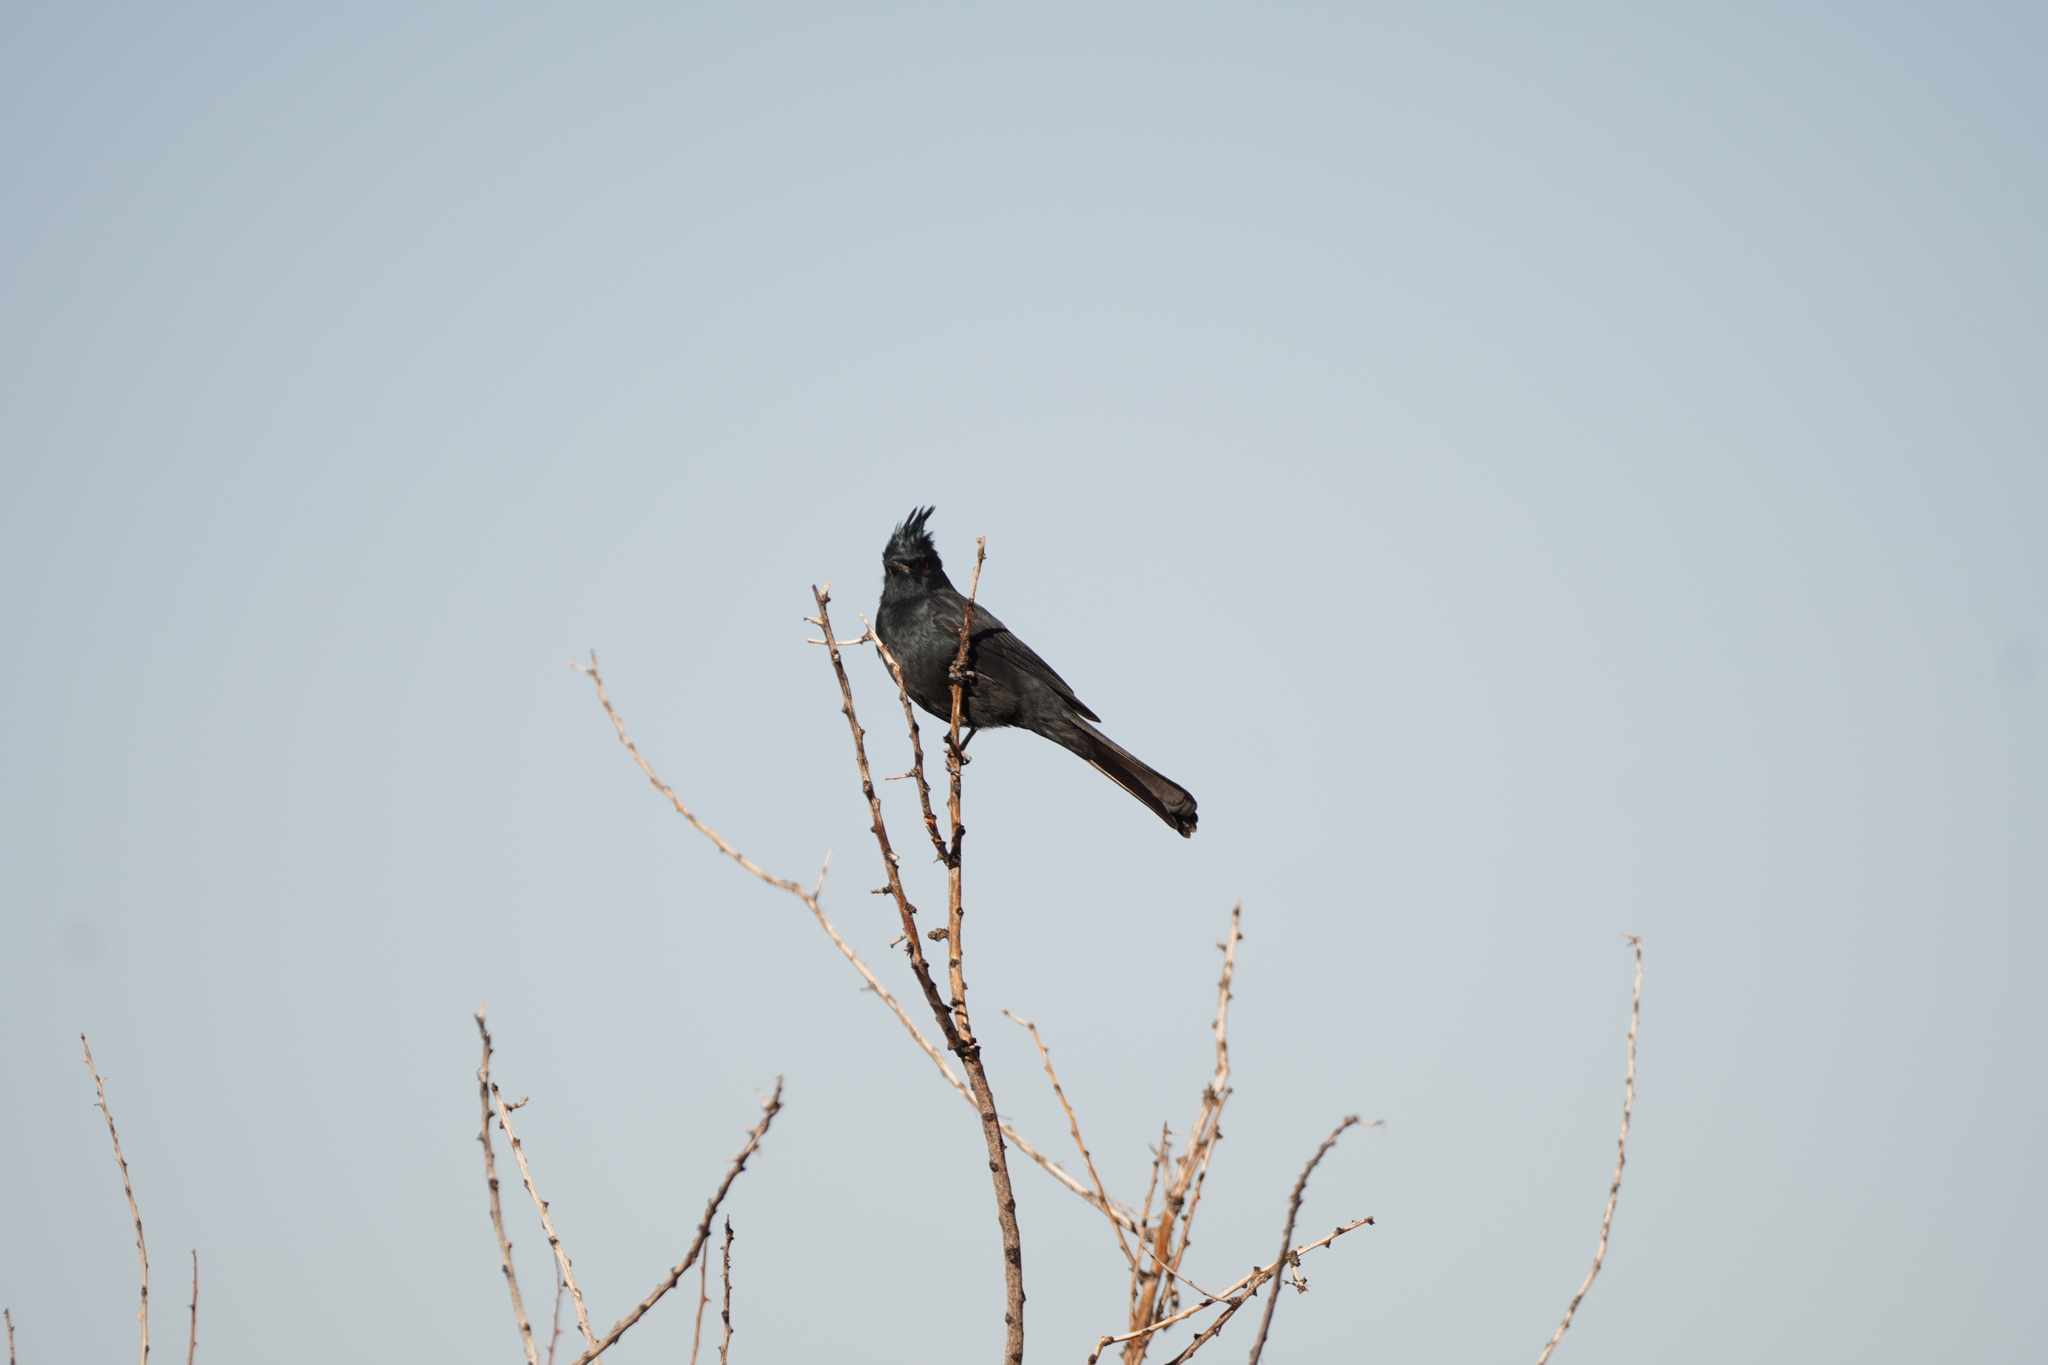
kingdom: Animalia
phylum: Chordata
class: Aves
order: Passeriformes
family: Ptilogonatidae
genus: Phainopepla
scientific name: Phainopepla nitens
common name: Phainopepla
